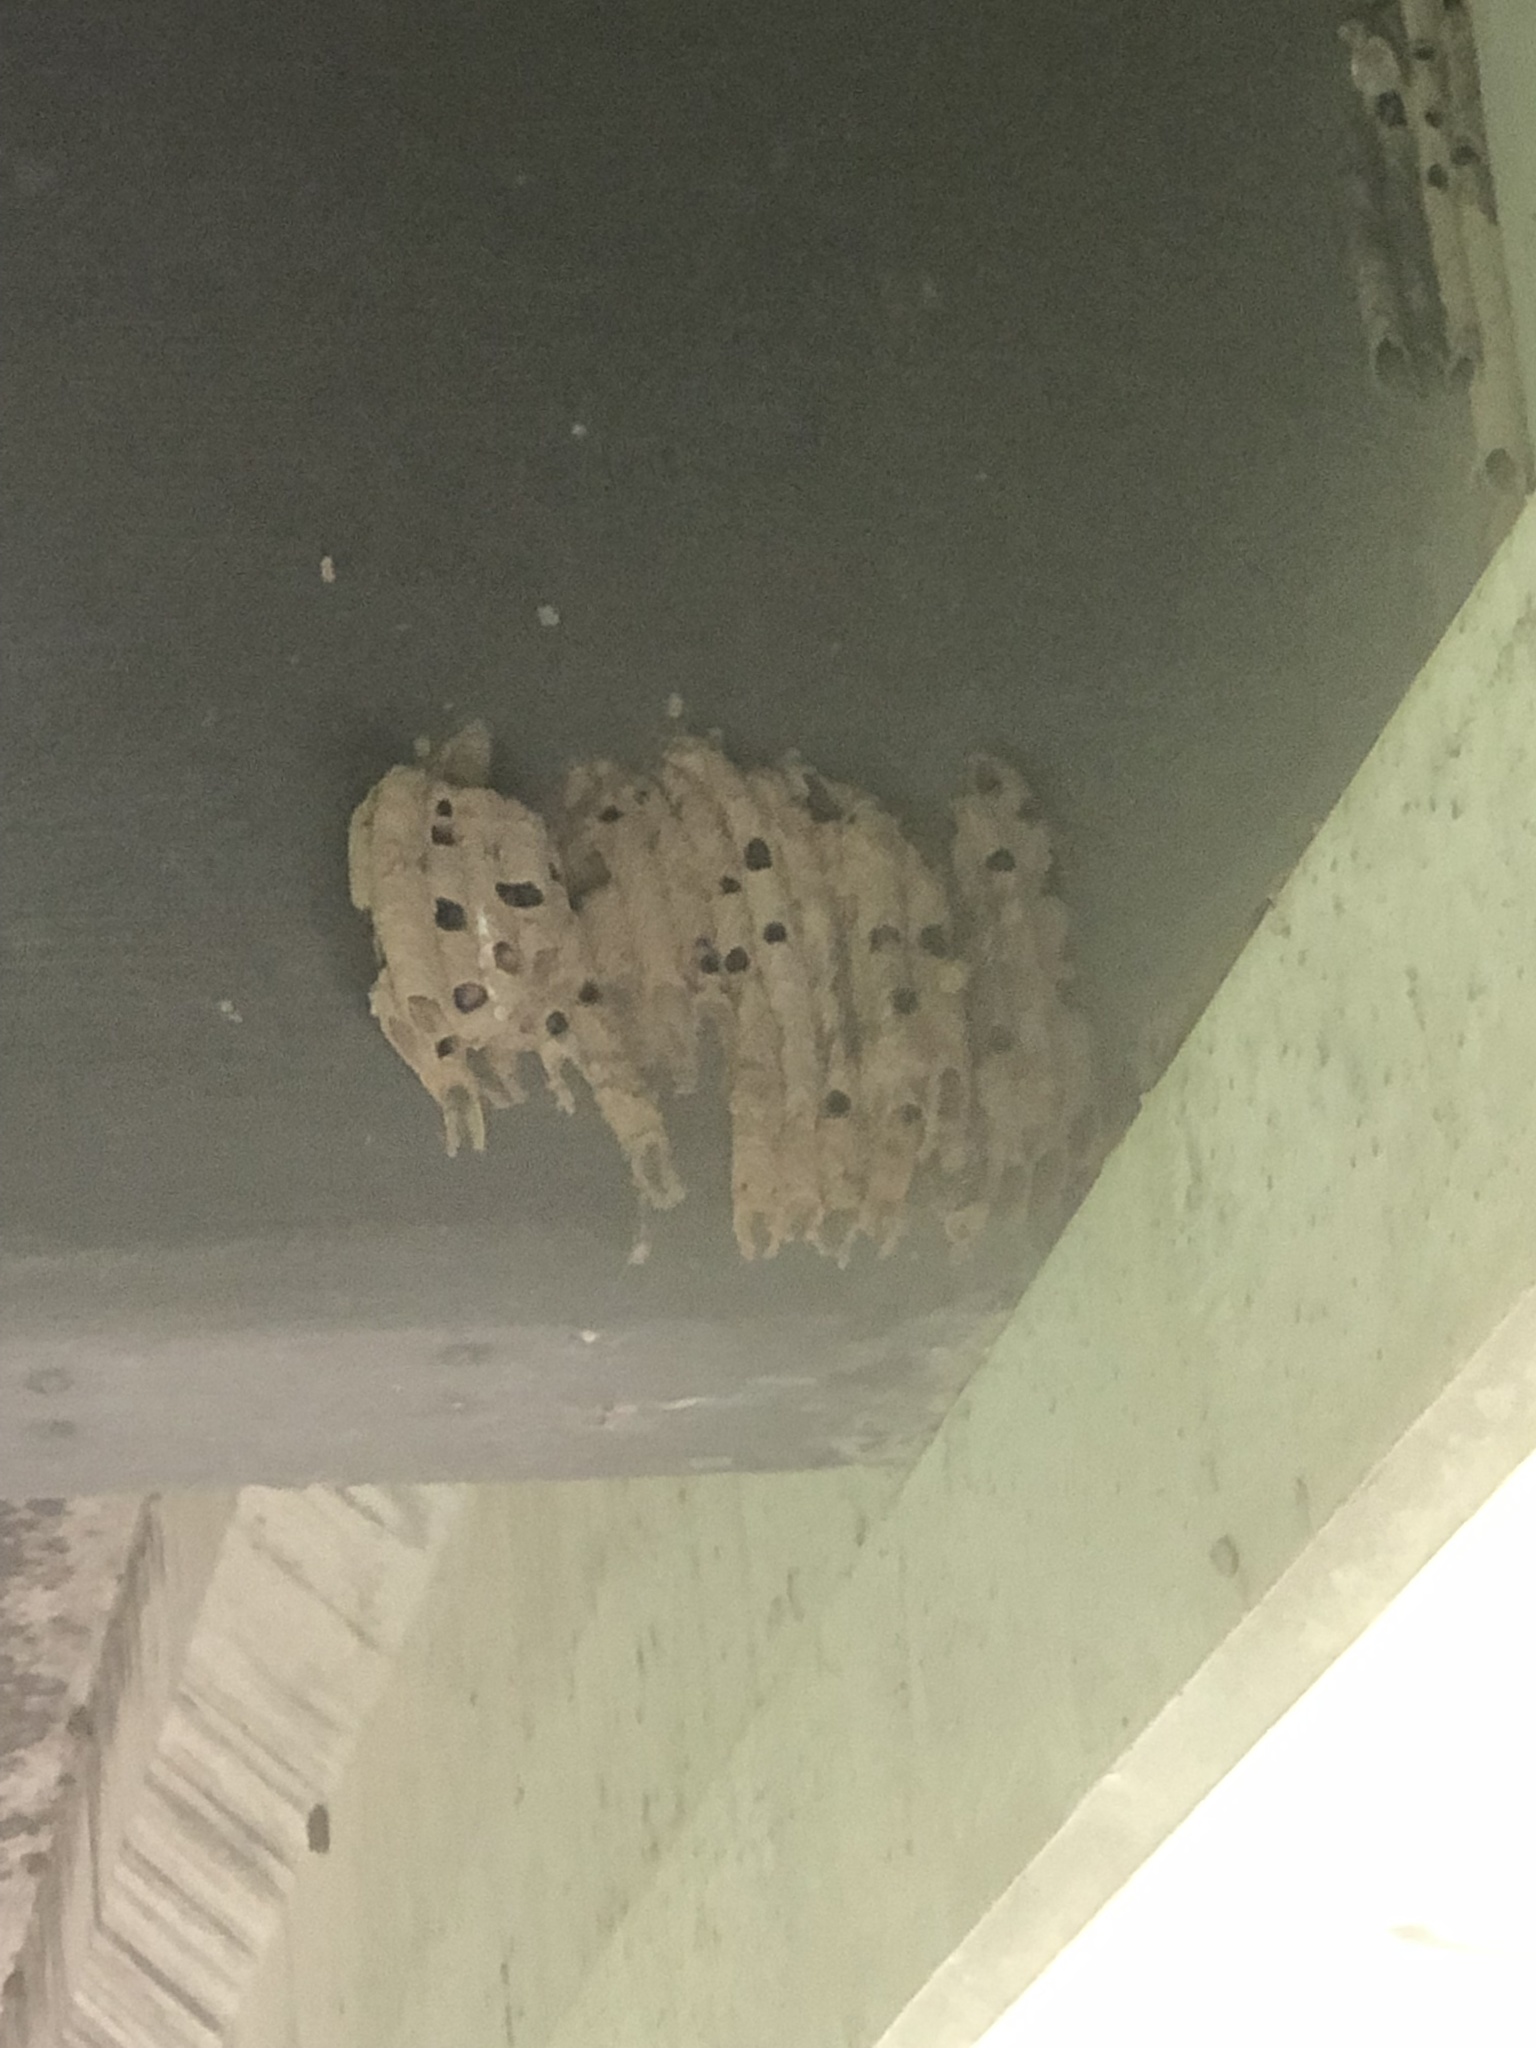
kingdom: Animalia
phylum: Arthropoda
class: Insecta
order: Hymenoptera
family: Crabronidae
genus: Trypoxylon
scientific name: Trypoxylon politum
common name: Organ-pipe mud-dauber wasp
